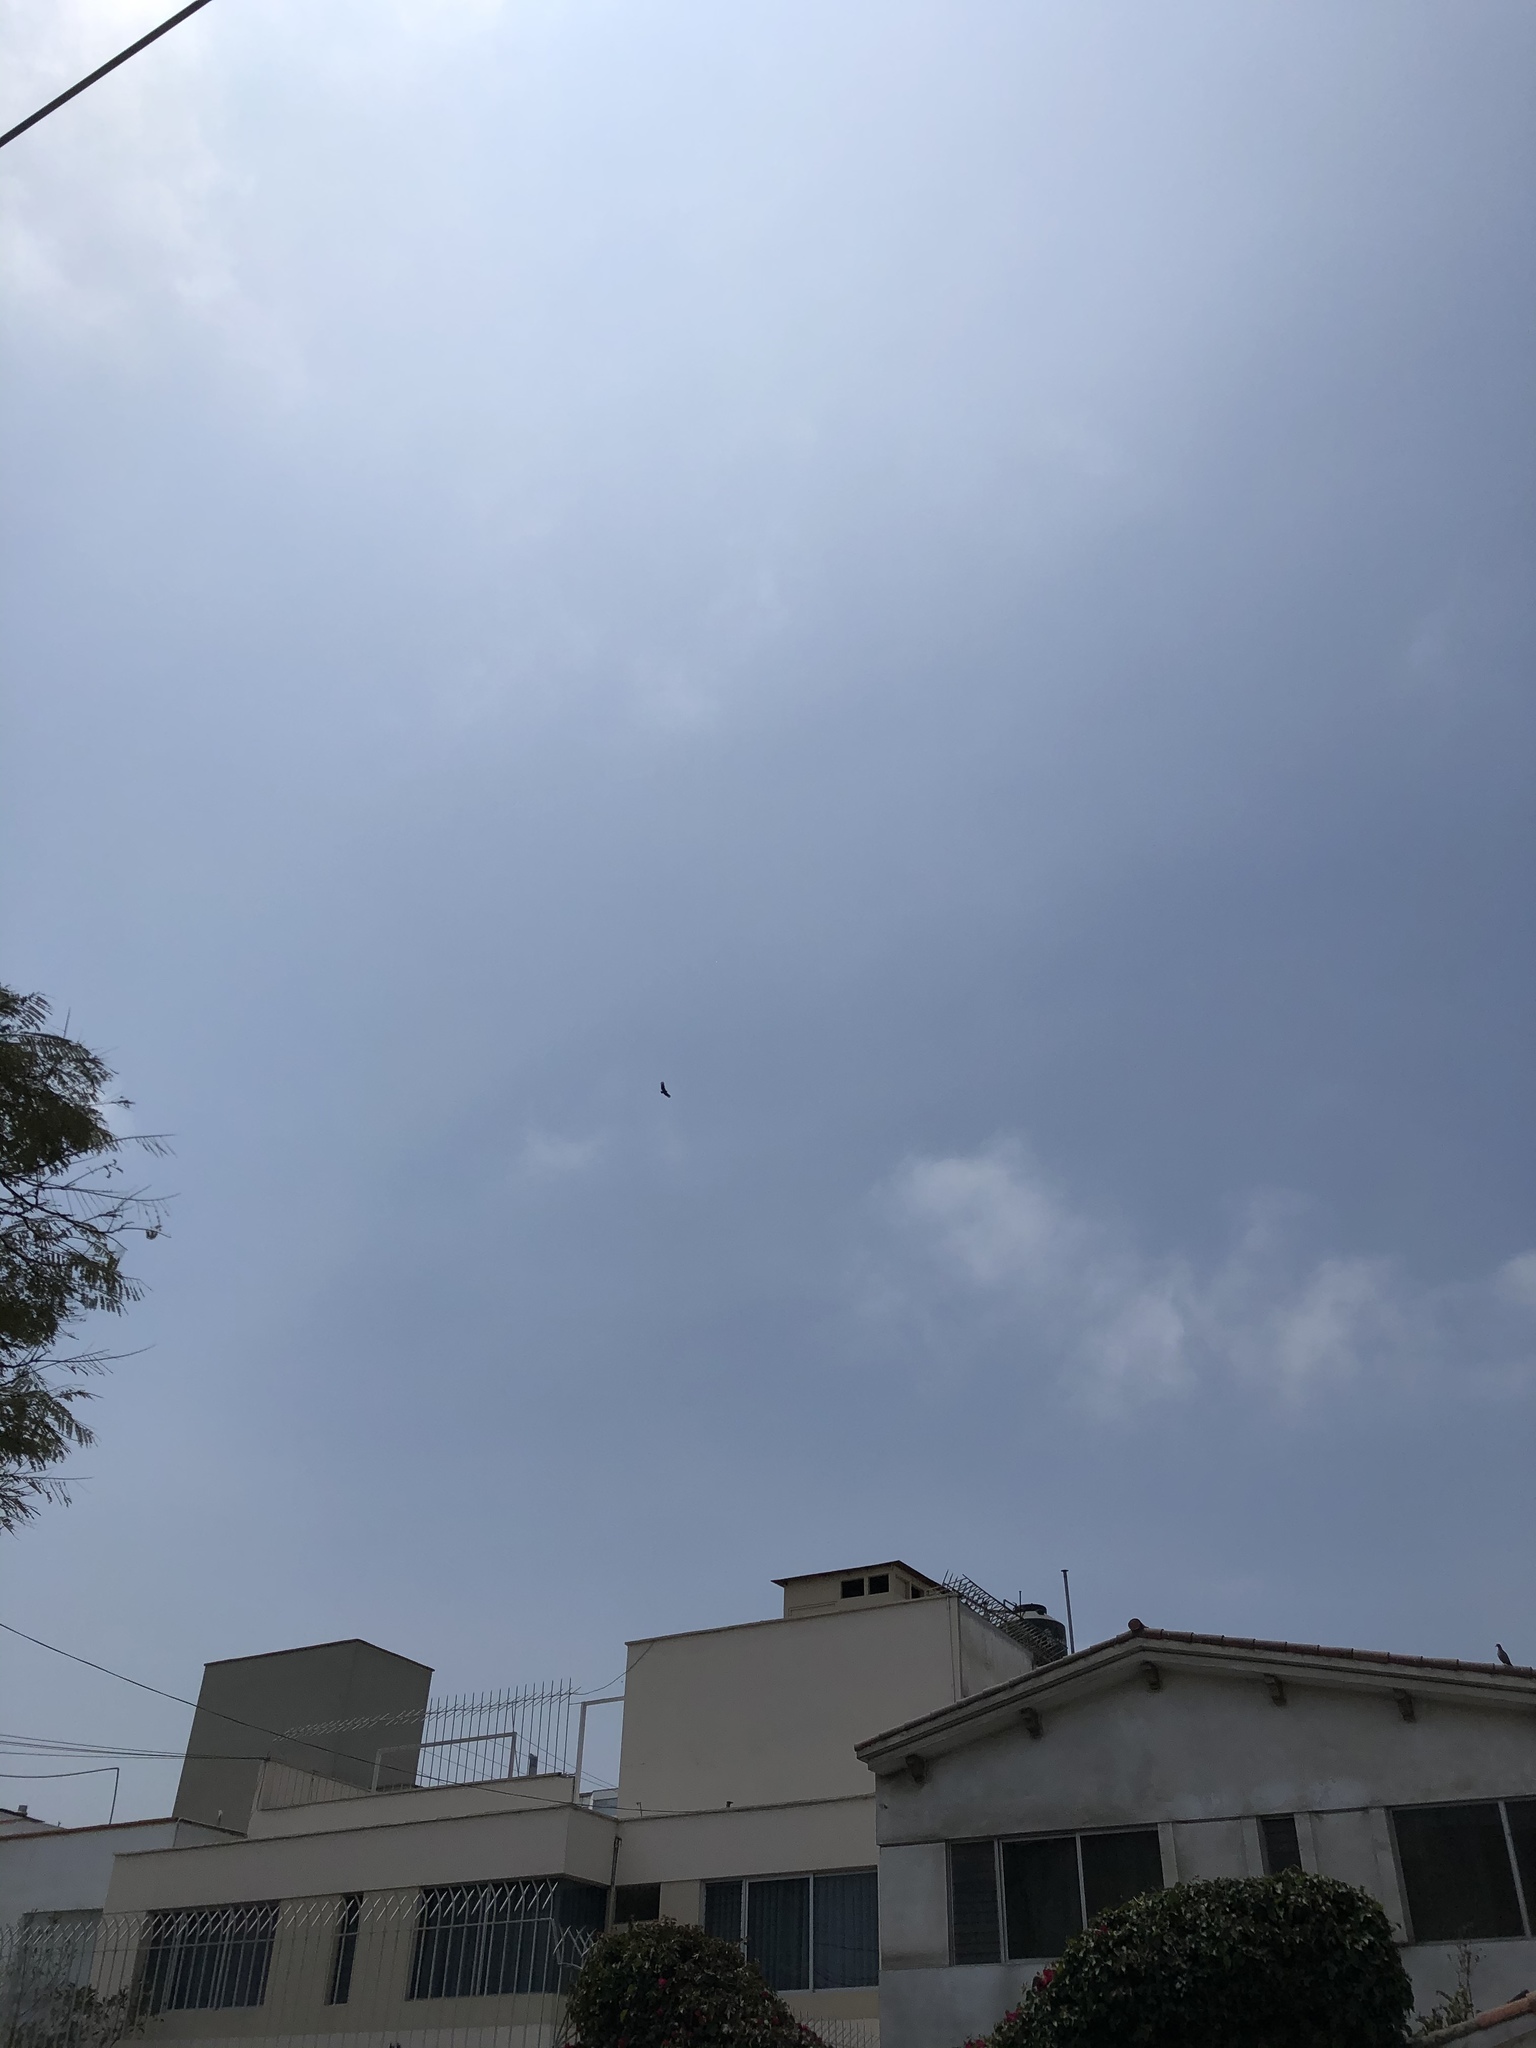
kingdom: Animalia
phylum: Chordata
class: Aves
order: Accipitriformes
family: Cathartidae
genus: Coragyps
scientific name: Coragyps atratus
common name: Black vulture
